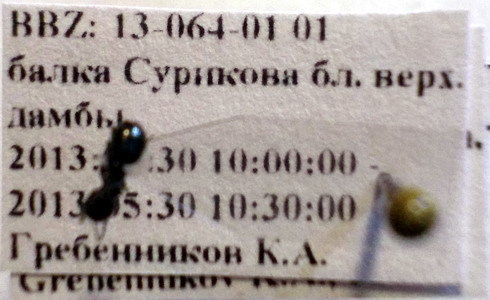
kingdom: Animalia
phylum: Arthropoda
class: Insecta
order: Hymenoptera
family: Formicidae
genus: Camponotus
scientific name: Camponotus piceus
